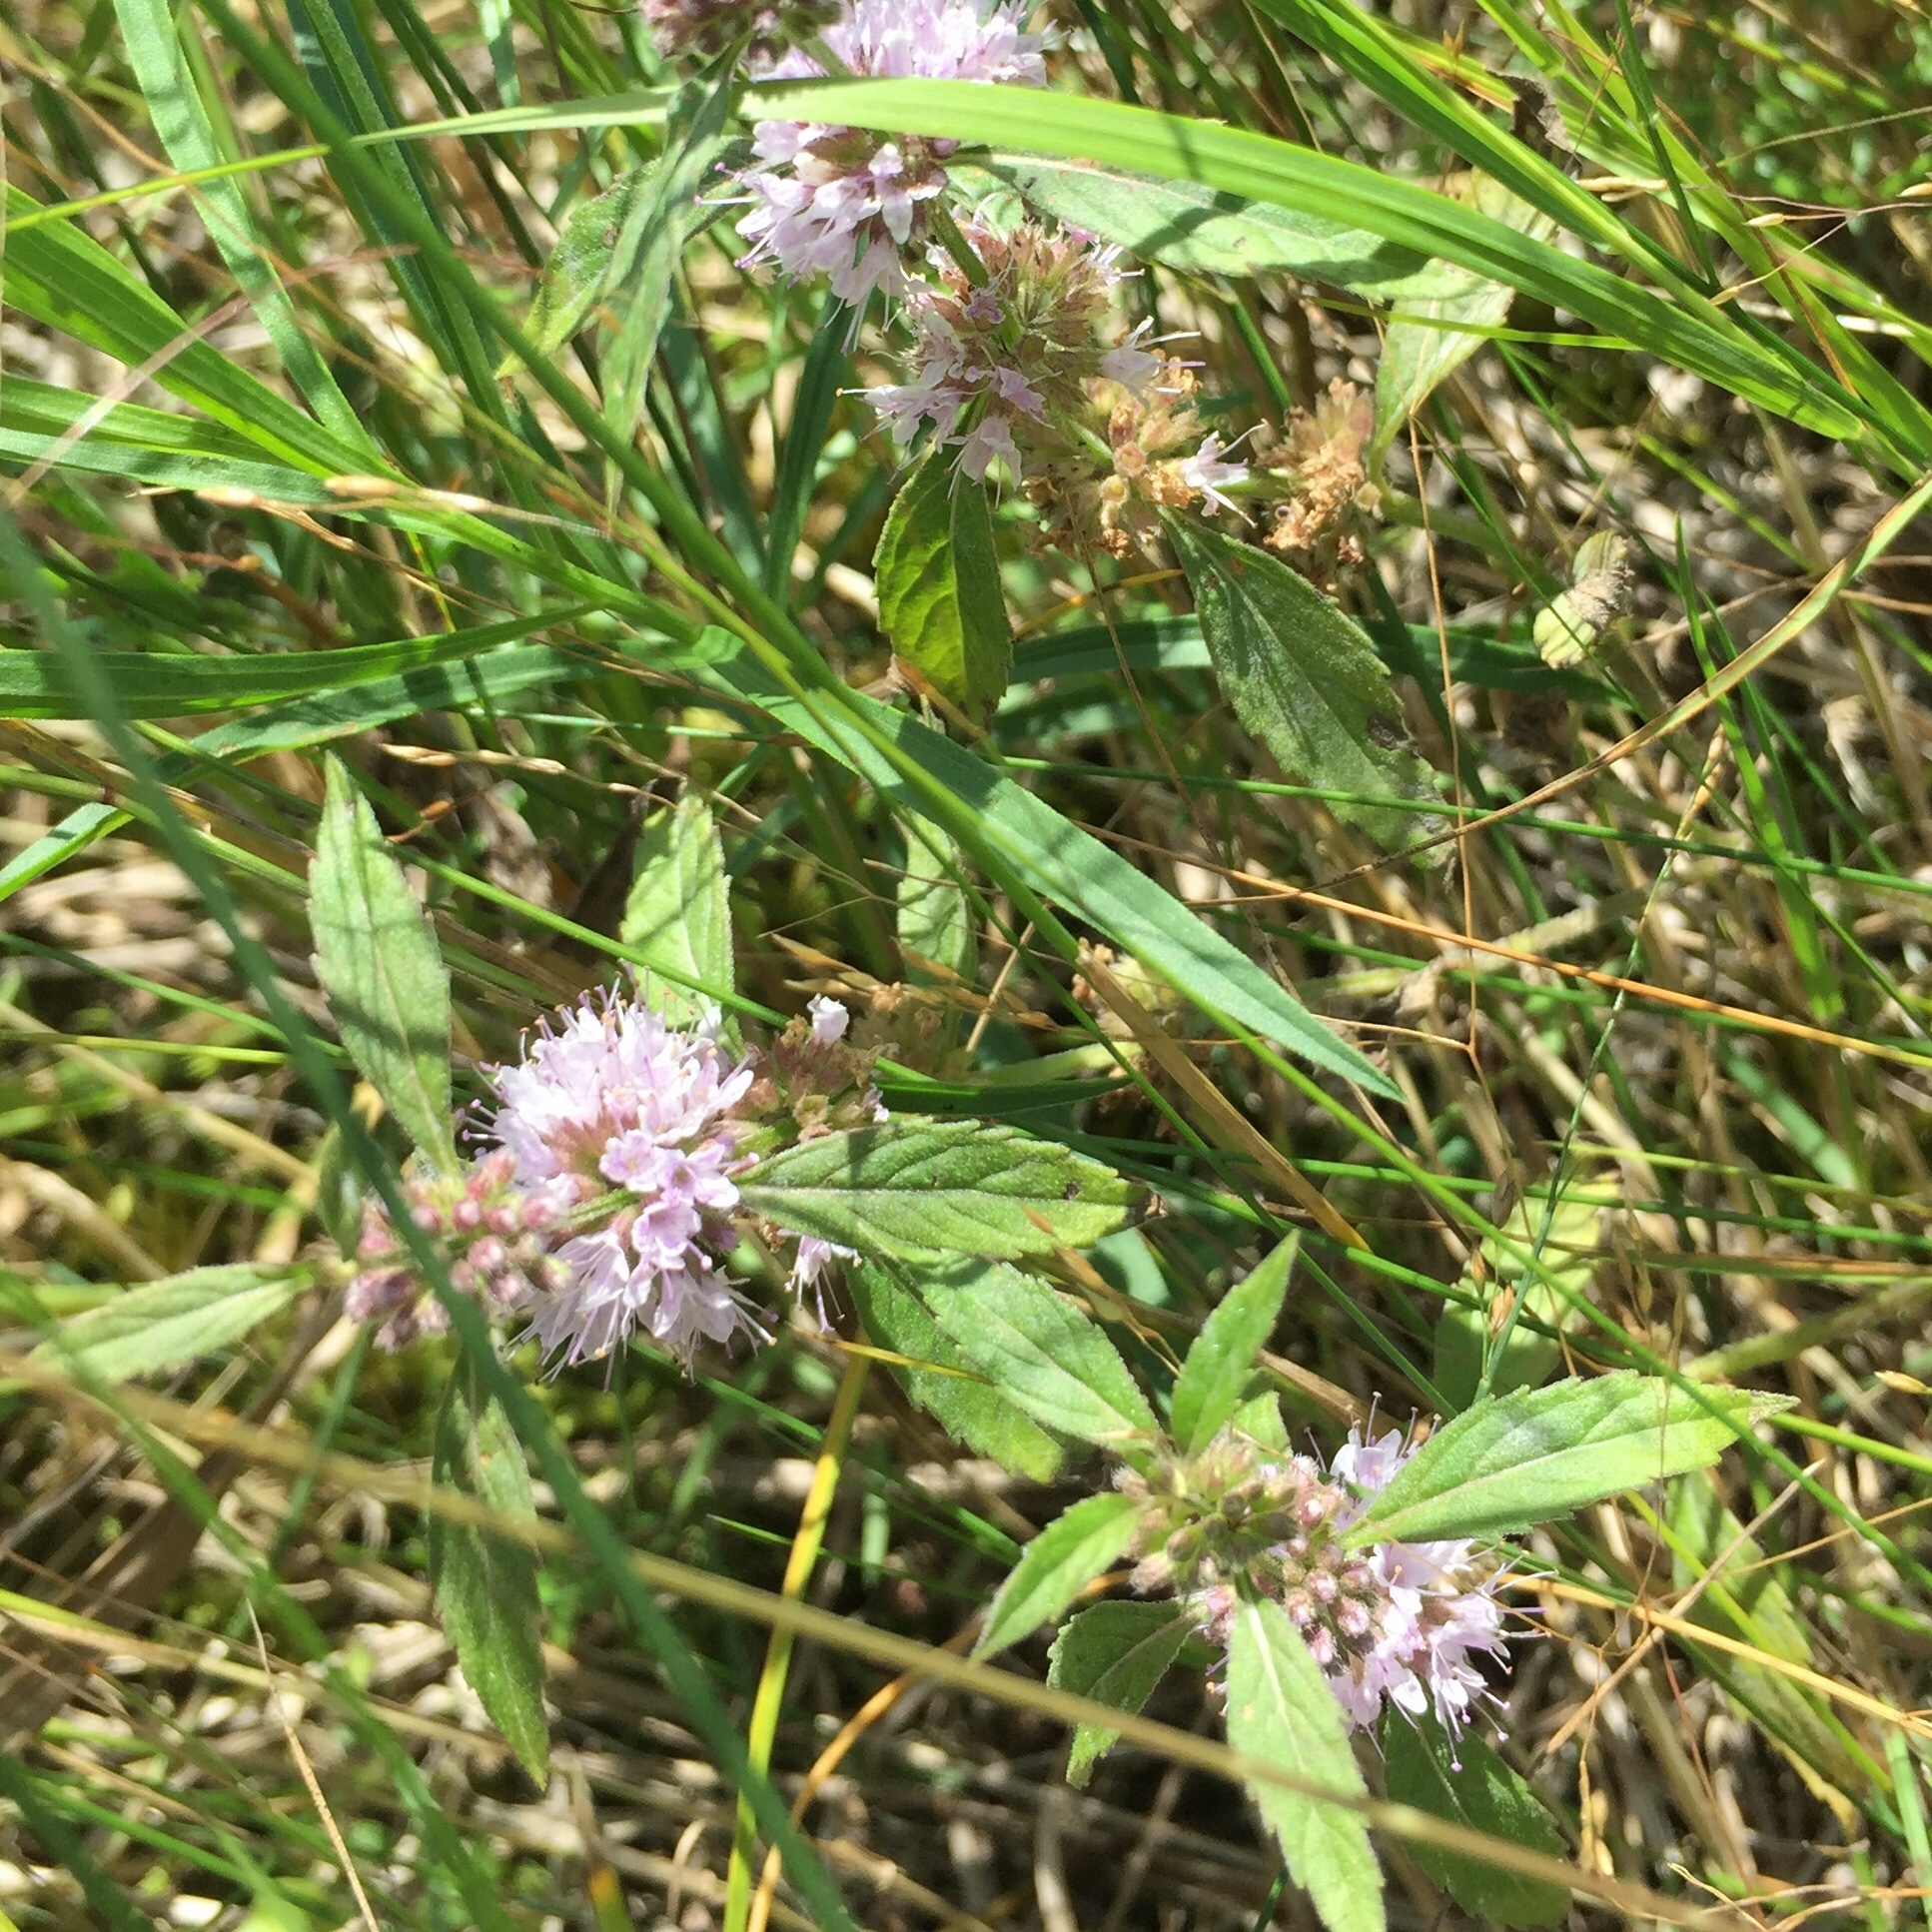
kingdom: Plantae
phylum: Tracheophyta
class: Magnoliopsida
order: Lamiales
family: Lamiaceae
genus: Mentha
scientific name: Mentha canadensis
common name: American corn mint
